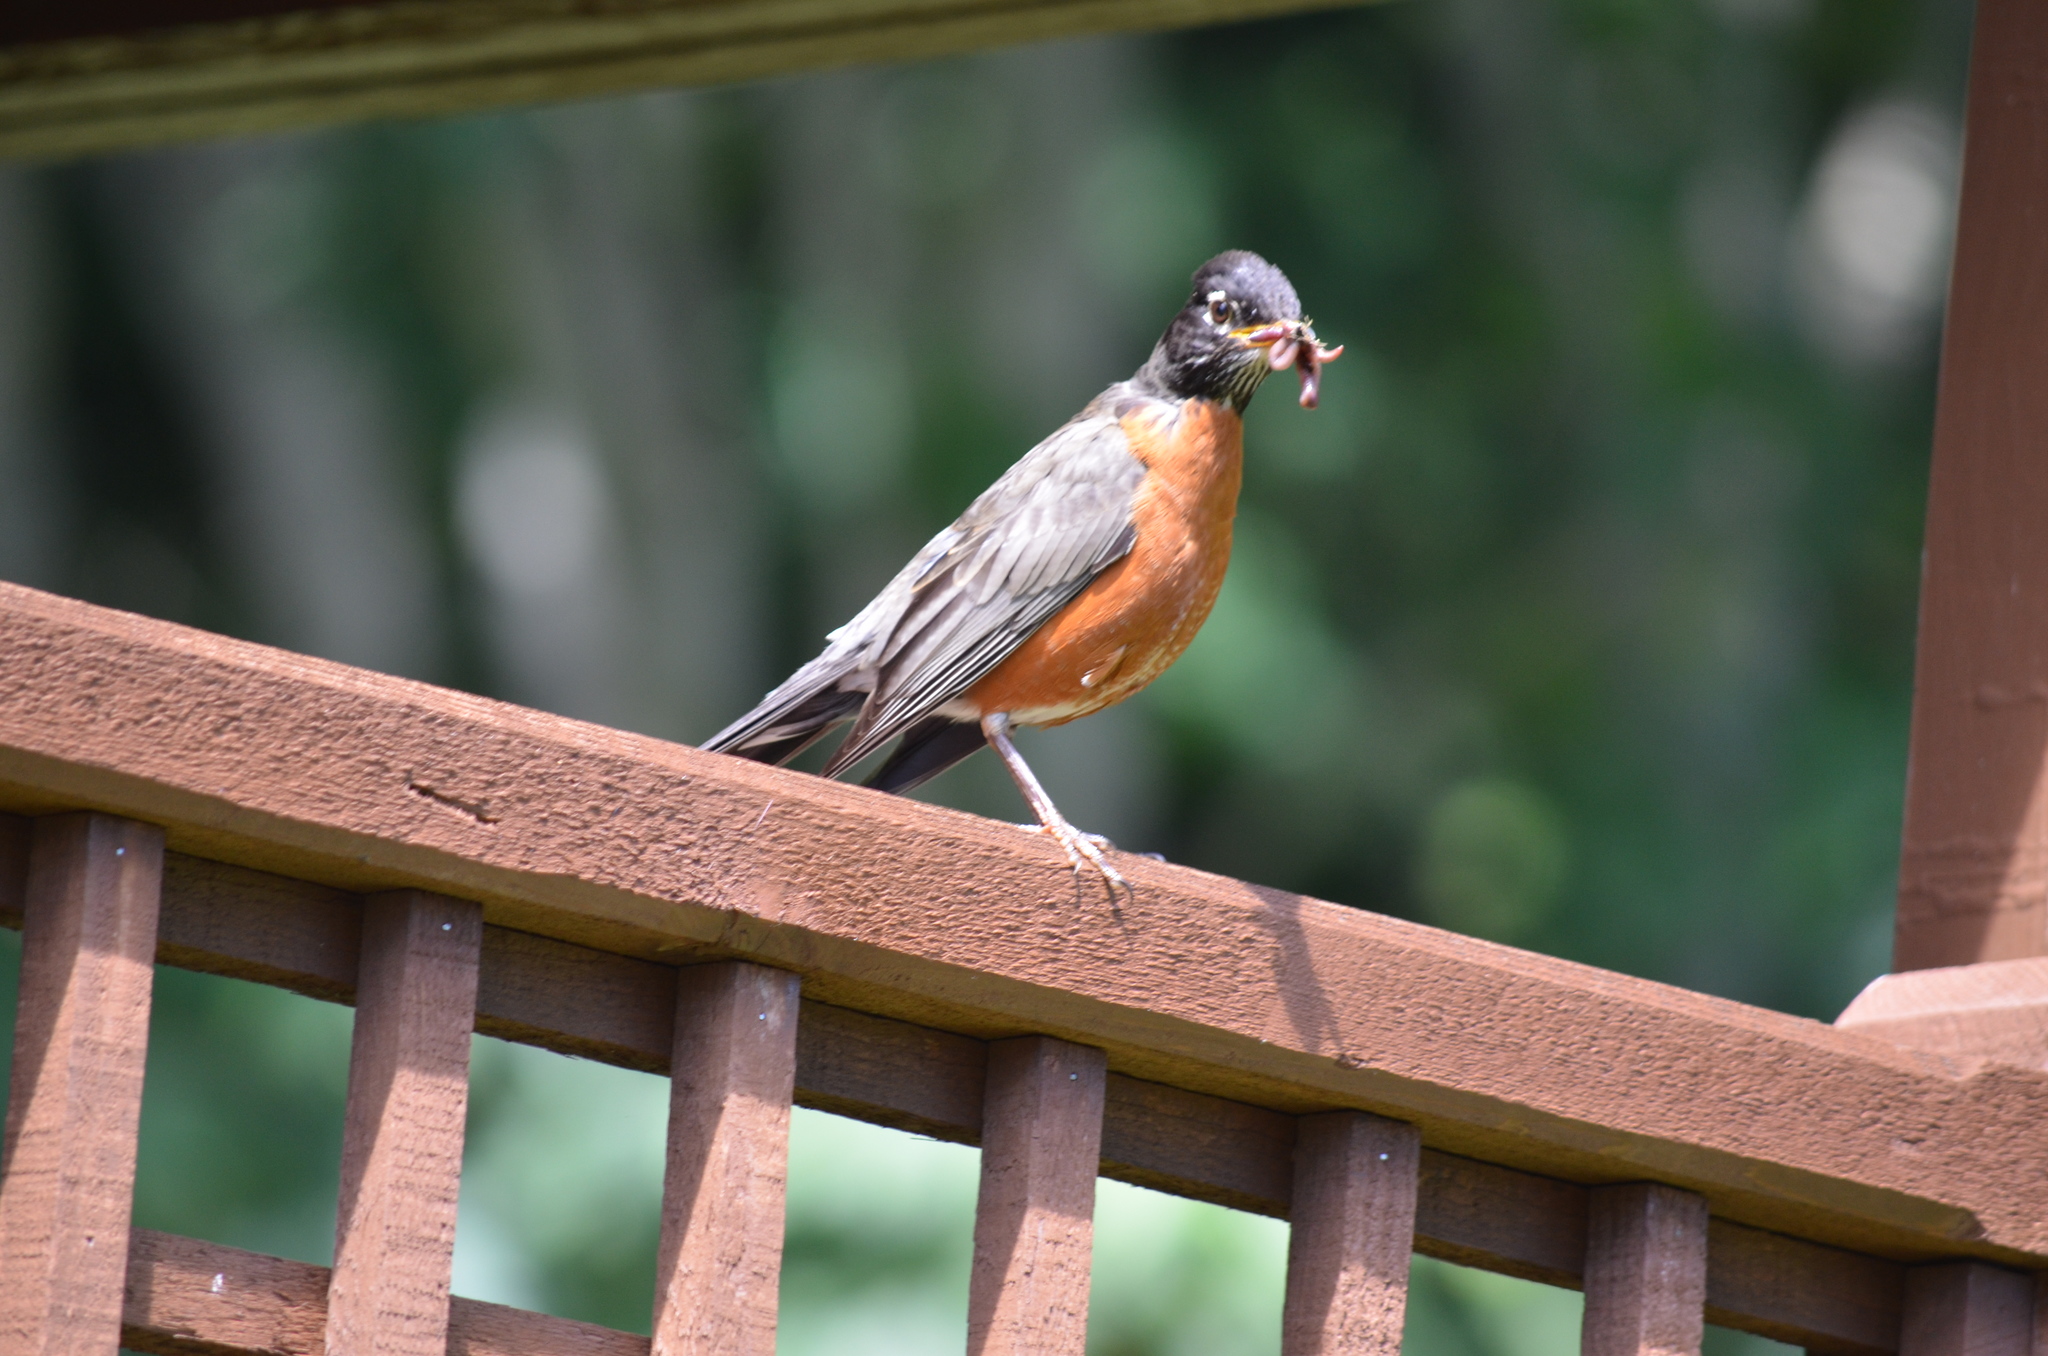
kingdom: Animalia
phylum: Chordata
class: Aves
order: Passeriformes
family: Turdidae
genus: Turdus
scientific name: Turdus migratorius
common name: American robin
